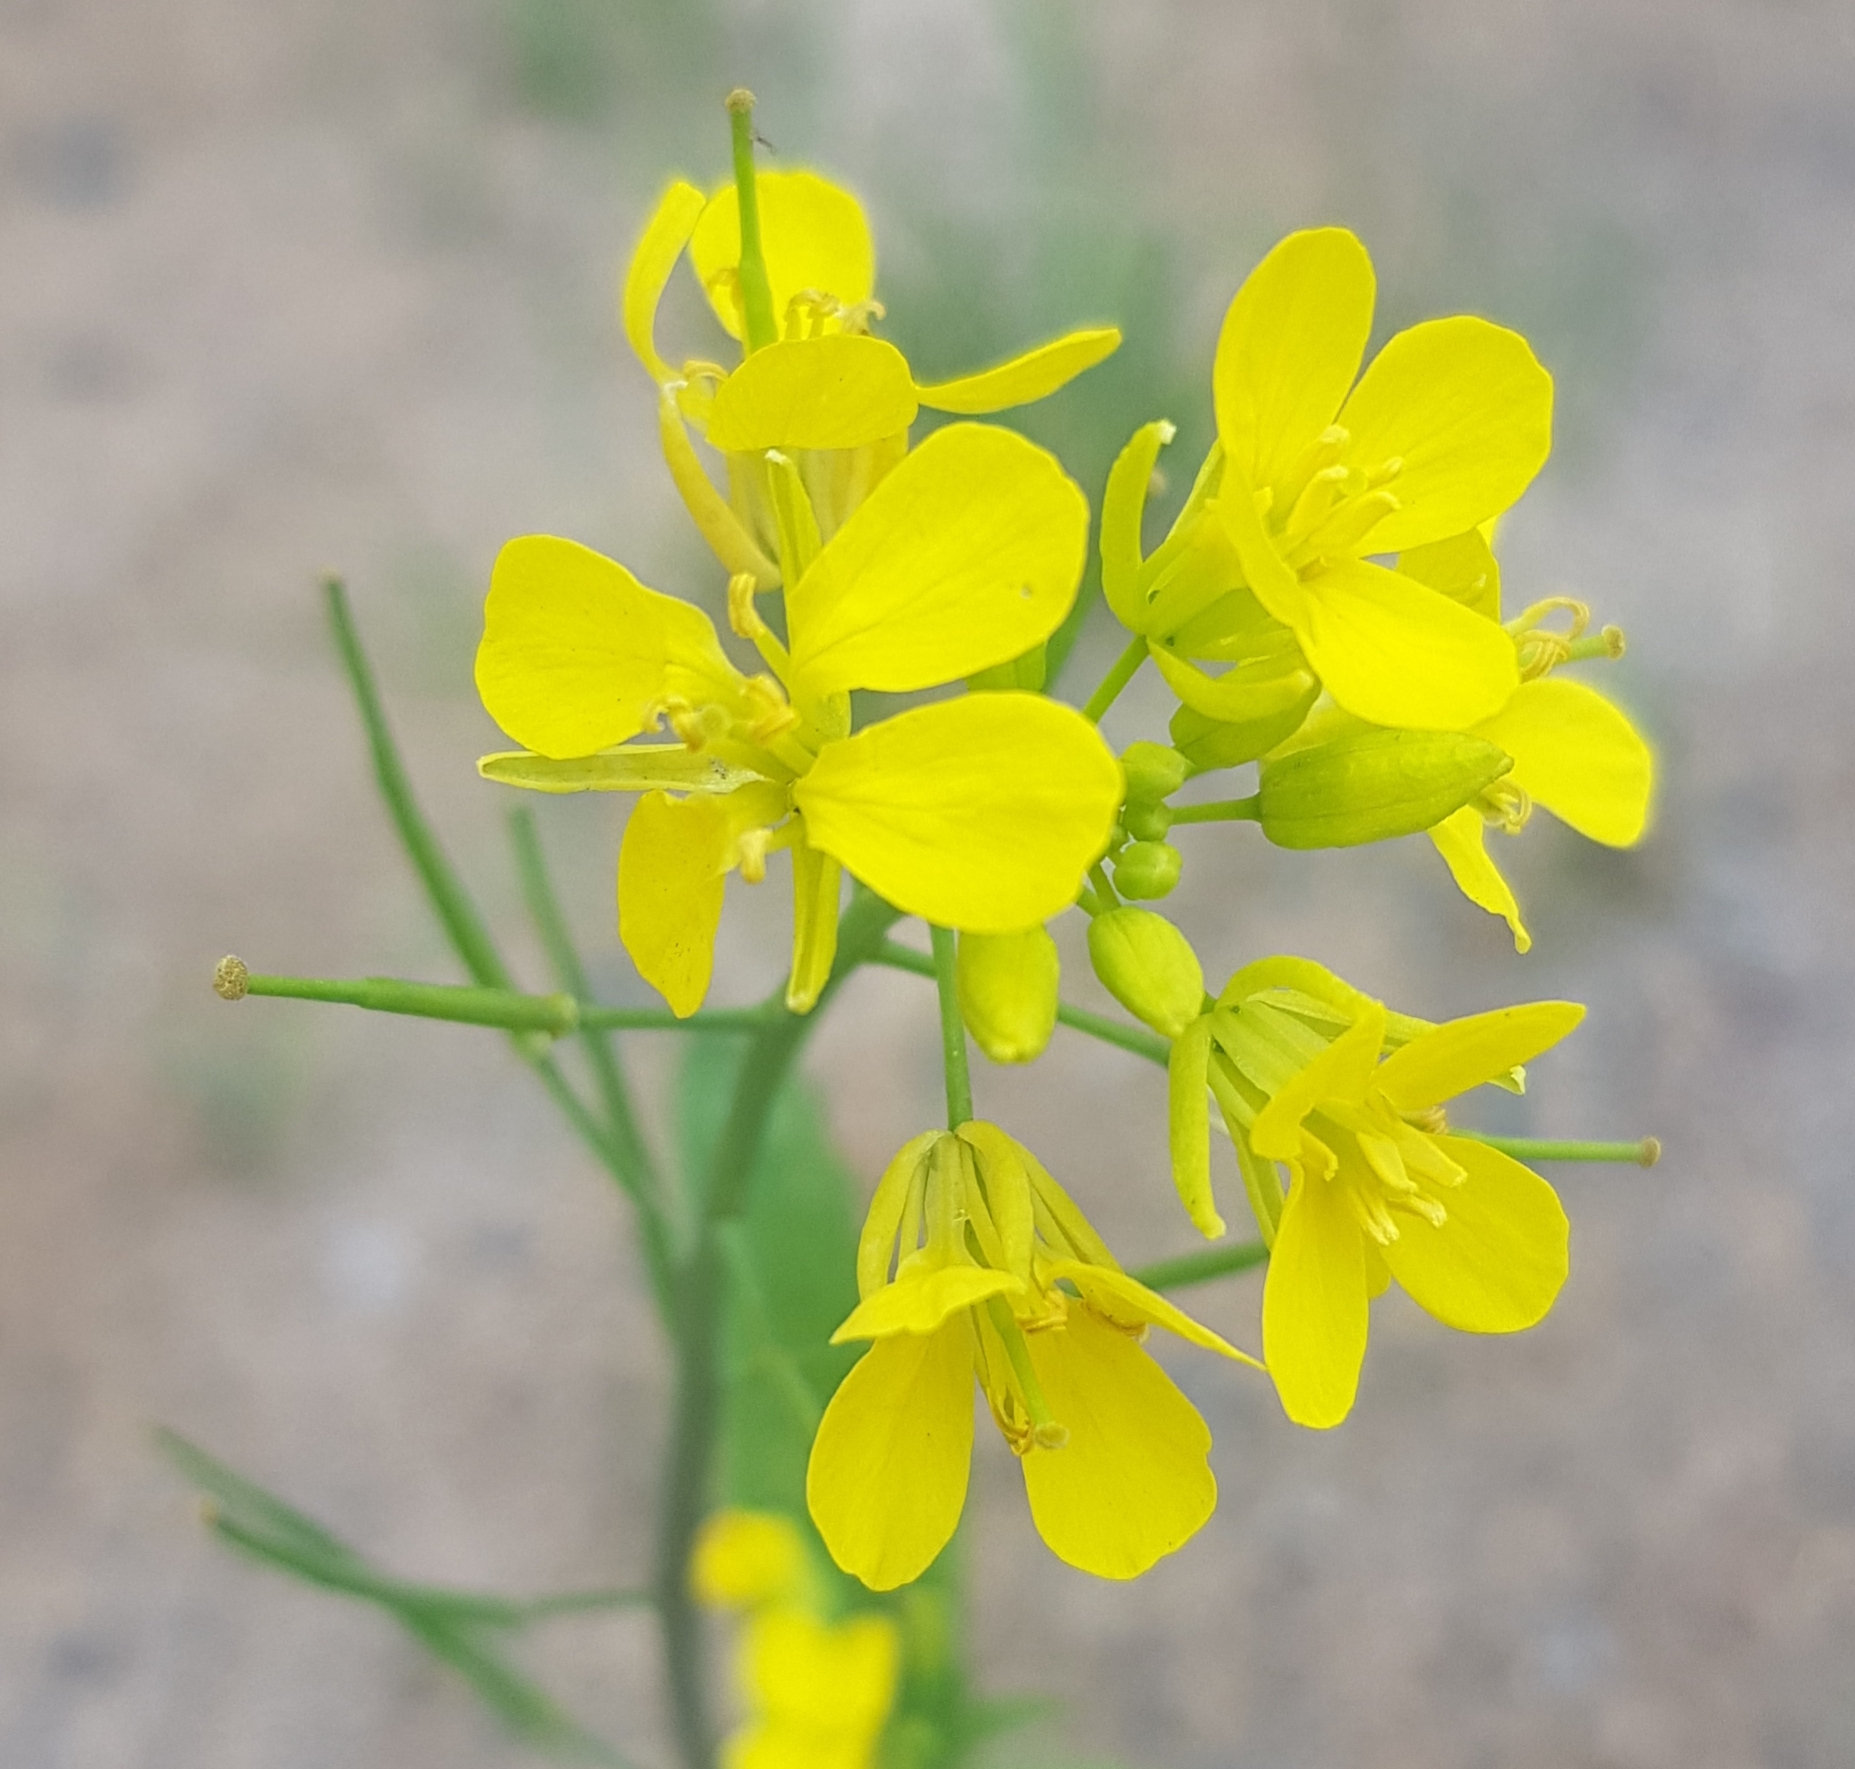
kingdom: Plantae
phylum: Tracheophyta
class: Magnoliopsida
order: Brassicales
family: Brassicaceae
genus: Brassica
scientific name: Brassica napus
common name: Rape
